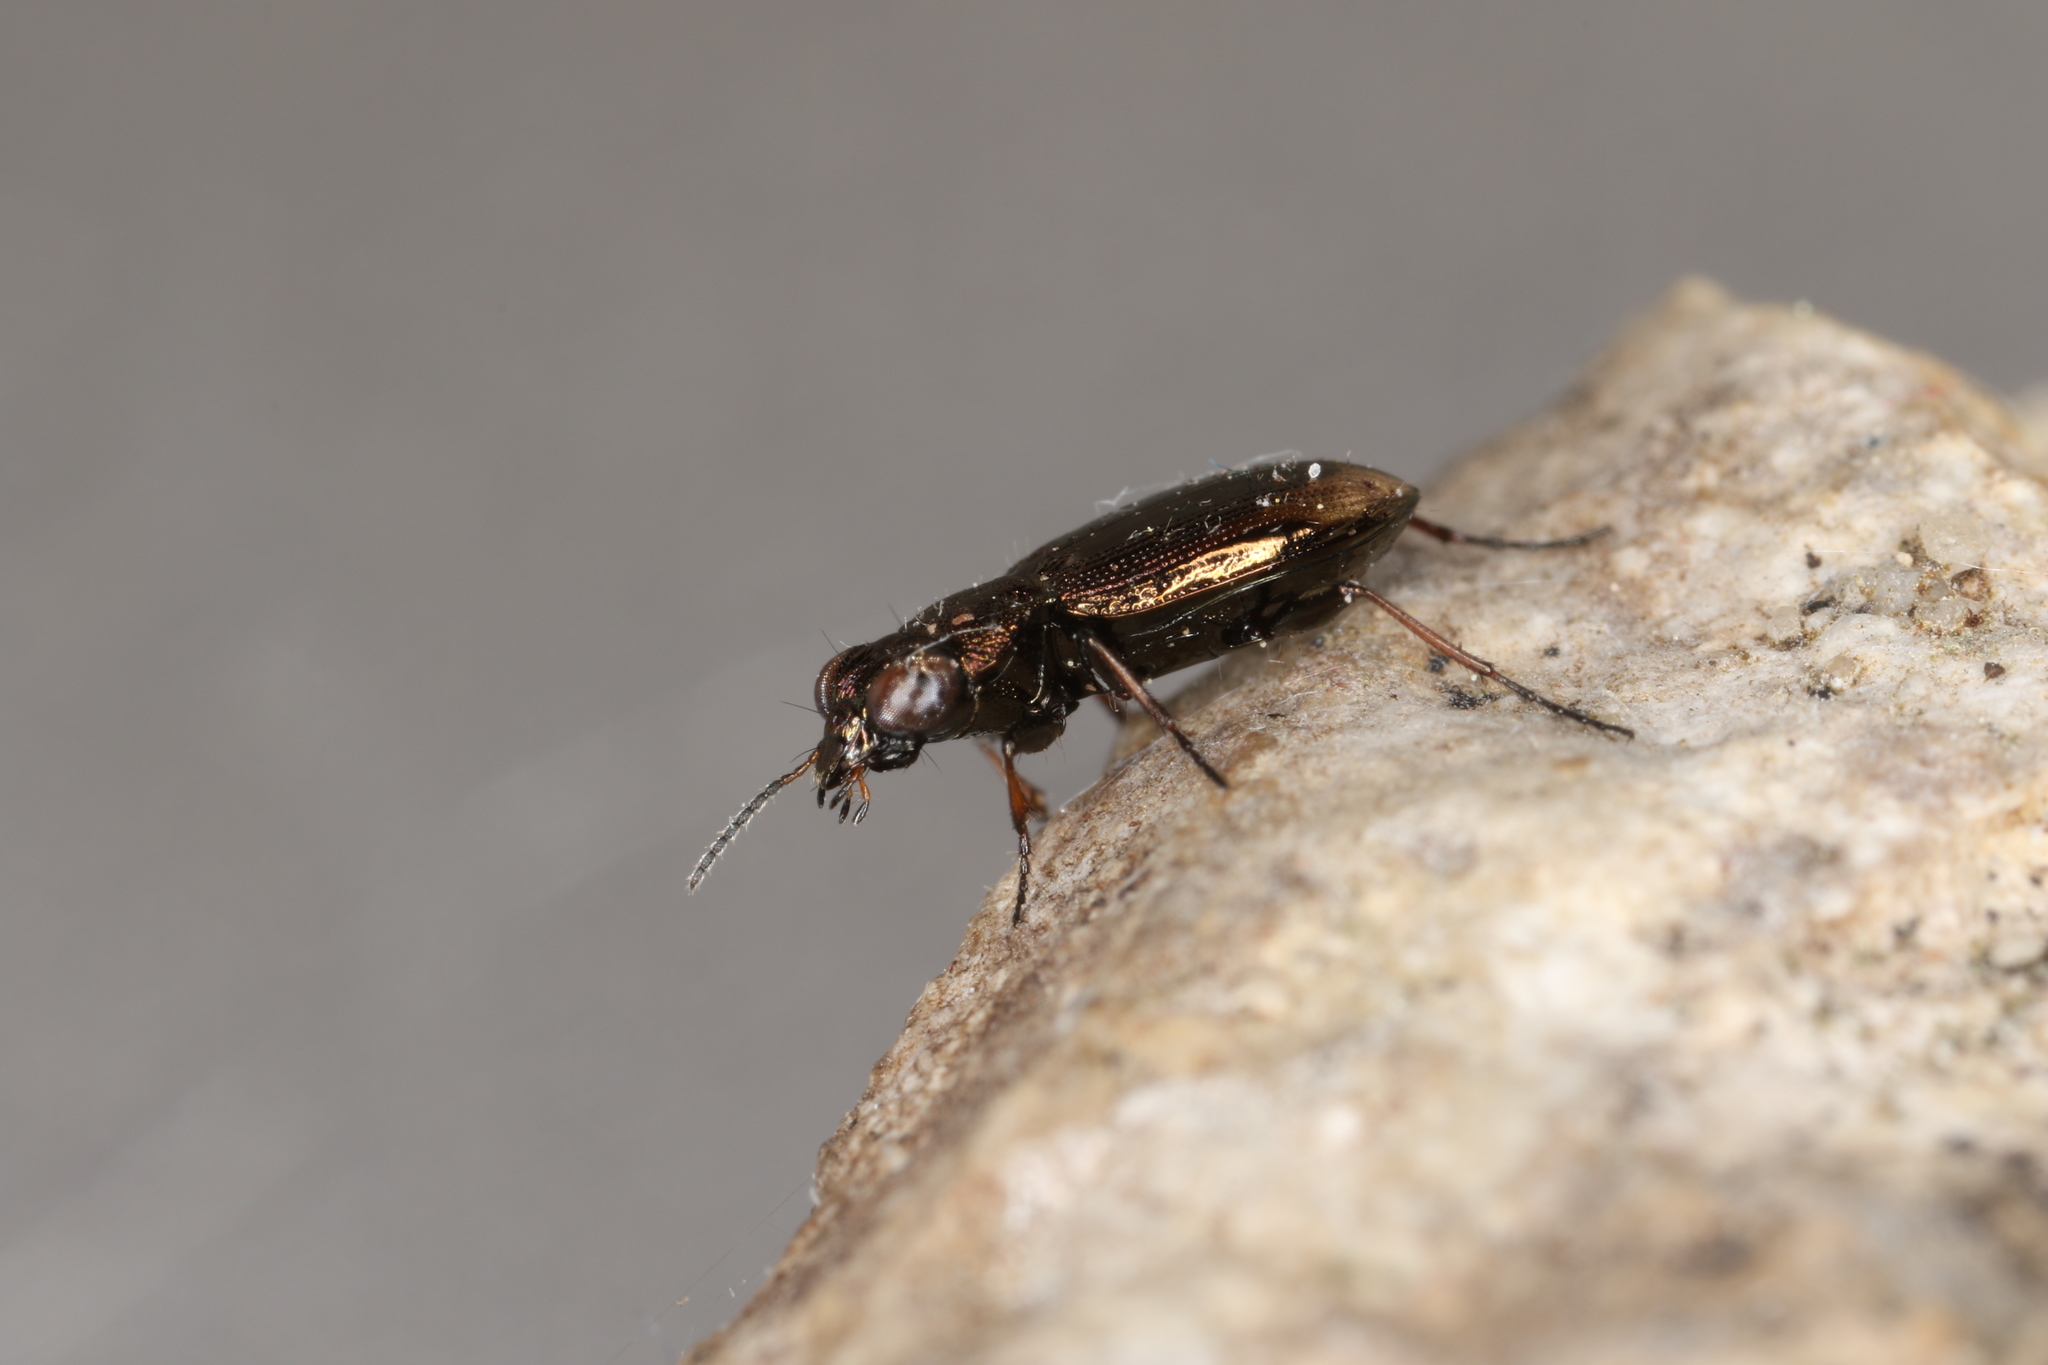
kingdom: Animalia
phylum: Arthropoda
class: Insecta
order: Coleoptera
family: Carabidae
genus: Notiophilus
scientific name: Notiophilus biguttatus
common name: Spotted gazelle beetle
